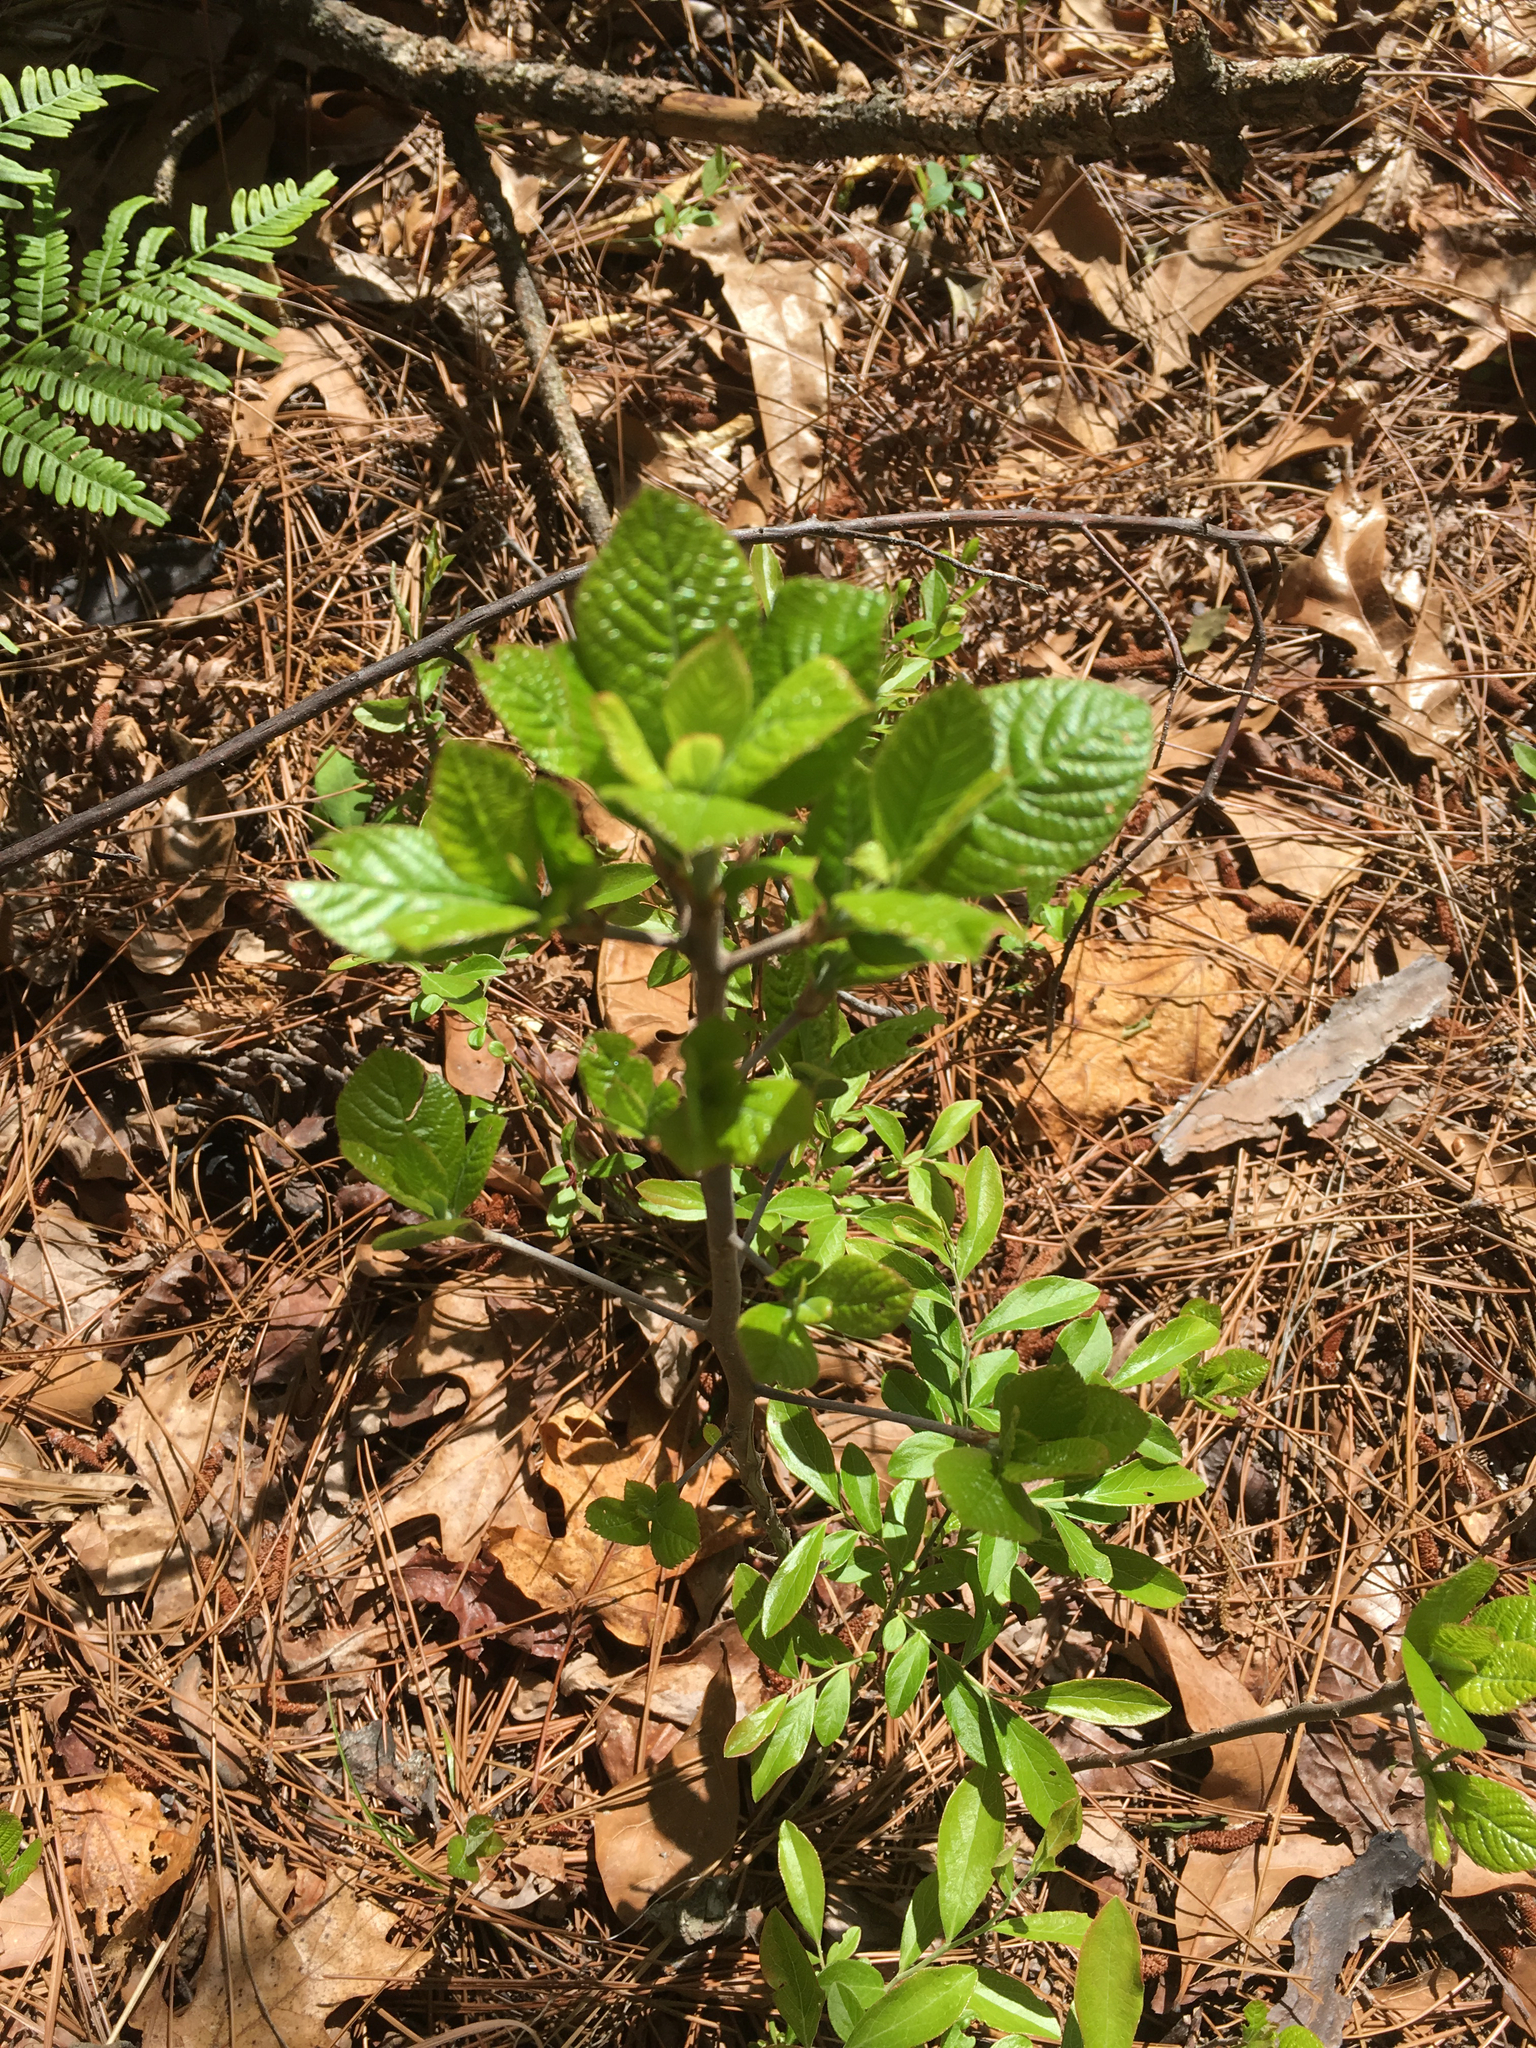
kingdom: Plantae
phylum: Tracheophyta
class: Magnoliopsida
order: Ericales
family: Clethraceae
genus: Clethra
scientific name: Clethra alnifolia
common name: Sweet pepperbush
